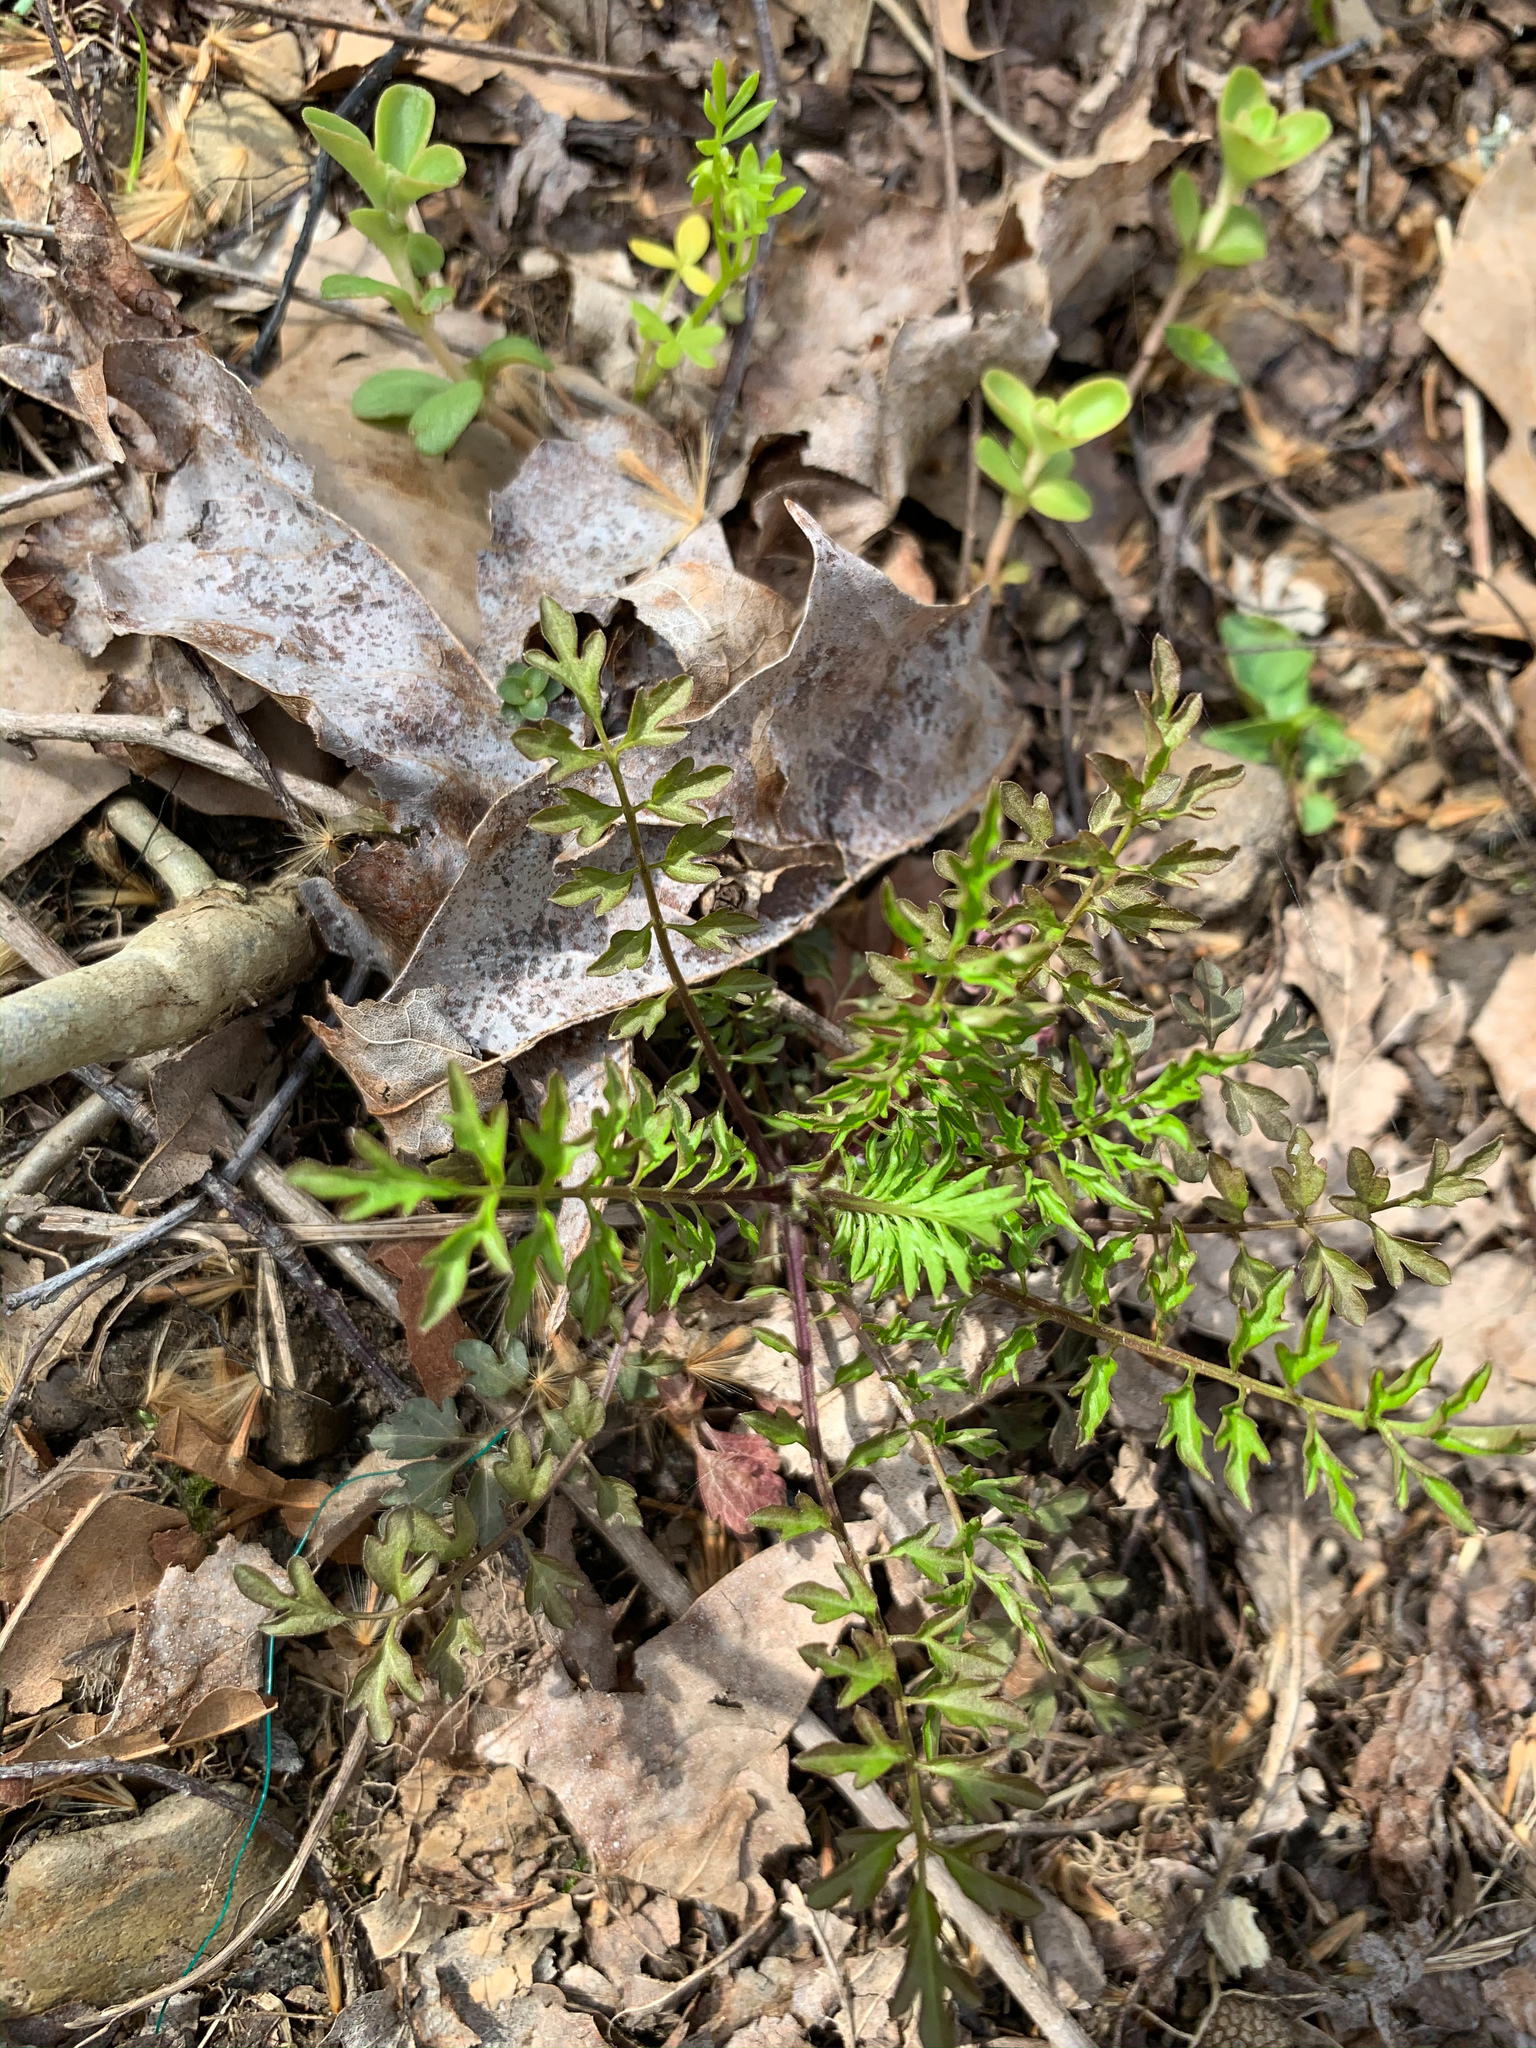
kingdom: Plantae
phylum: Tracheophyta
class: Magnoliopsida
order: Brassicales
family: Brassicaceae
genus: Cardamine
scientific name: Cardamine impatiens
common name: Narrow-leaved bitter-cress
